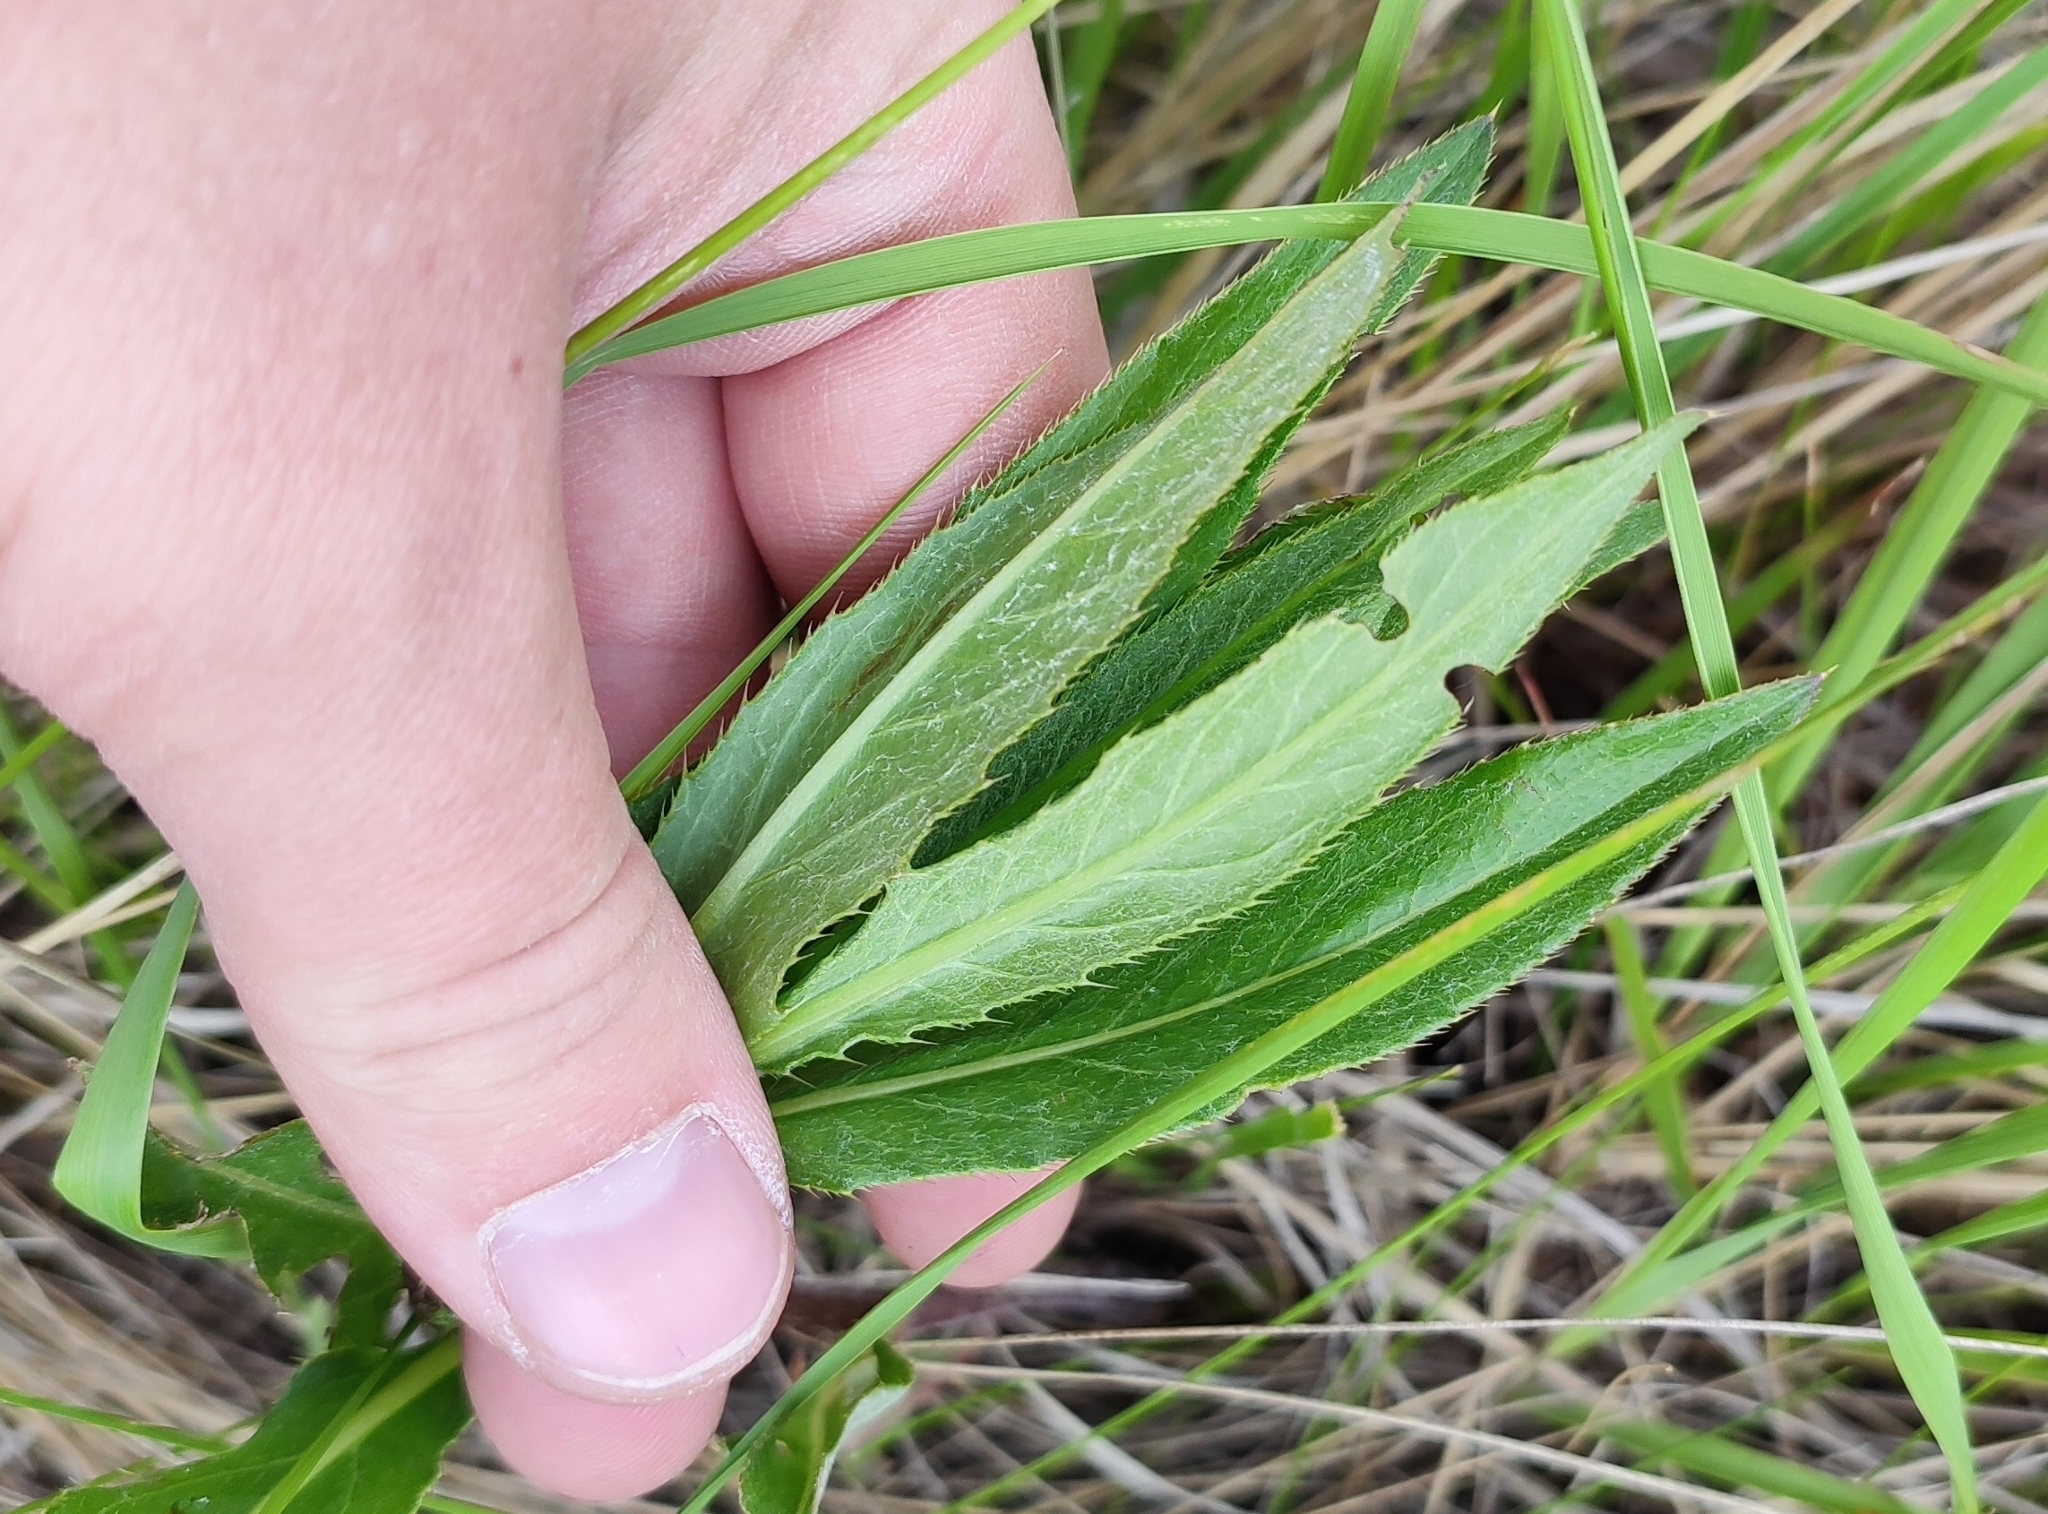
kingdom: Plantae
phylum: Tracheophyta
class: Magnoliopsida
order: Asterales
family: Asteraceae
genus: Cirsium
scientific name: Cirsium arvense
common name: Creeping thistle
